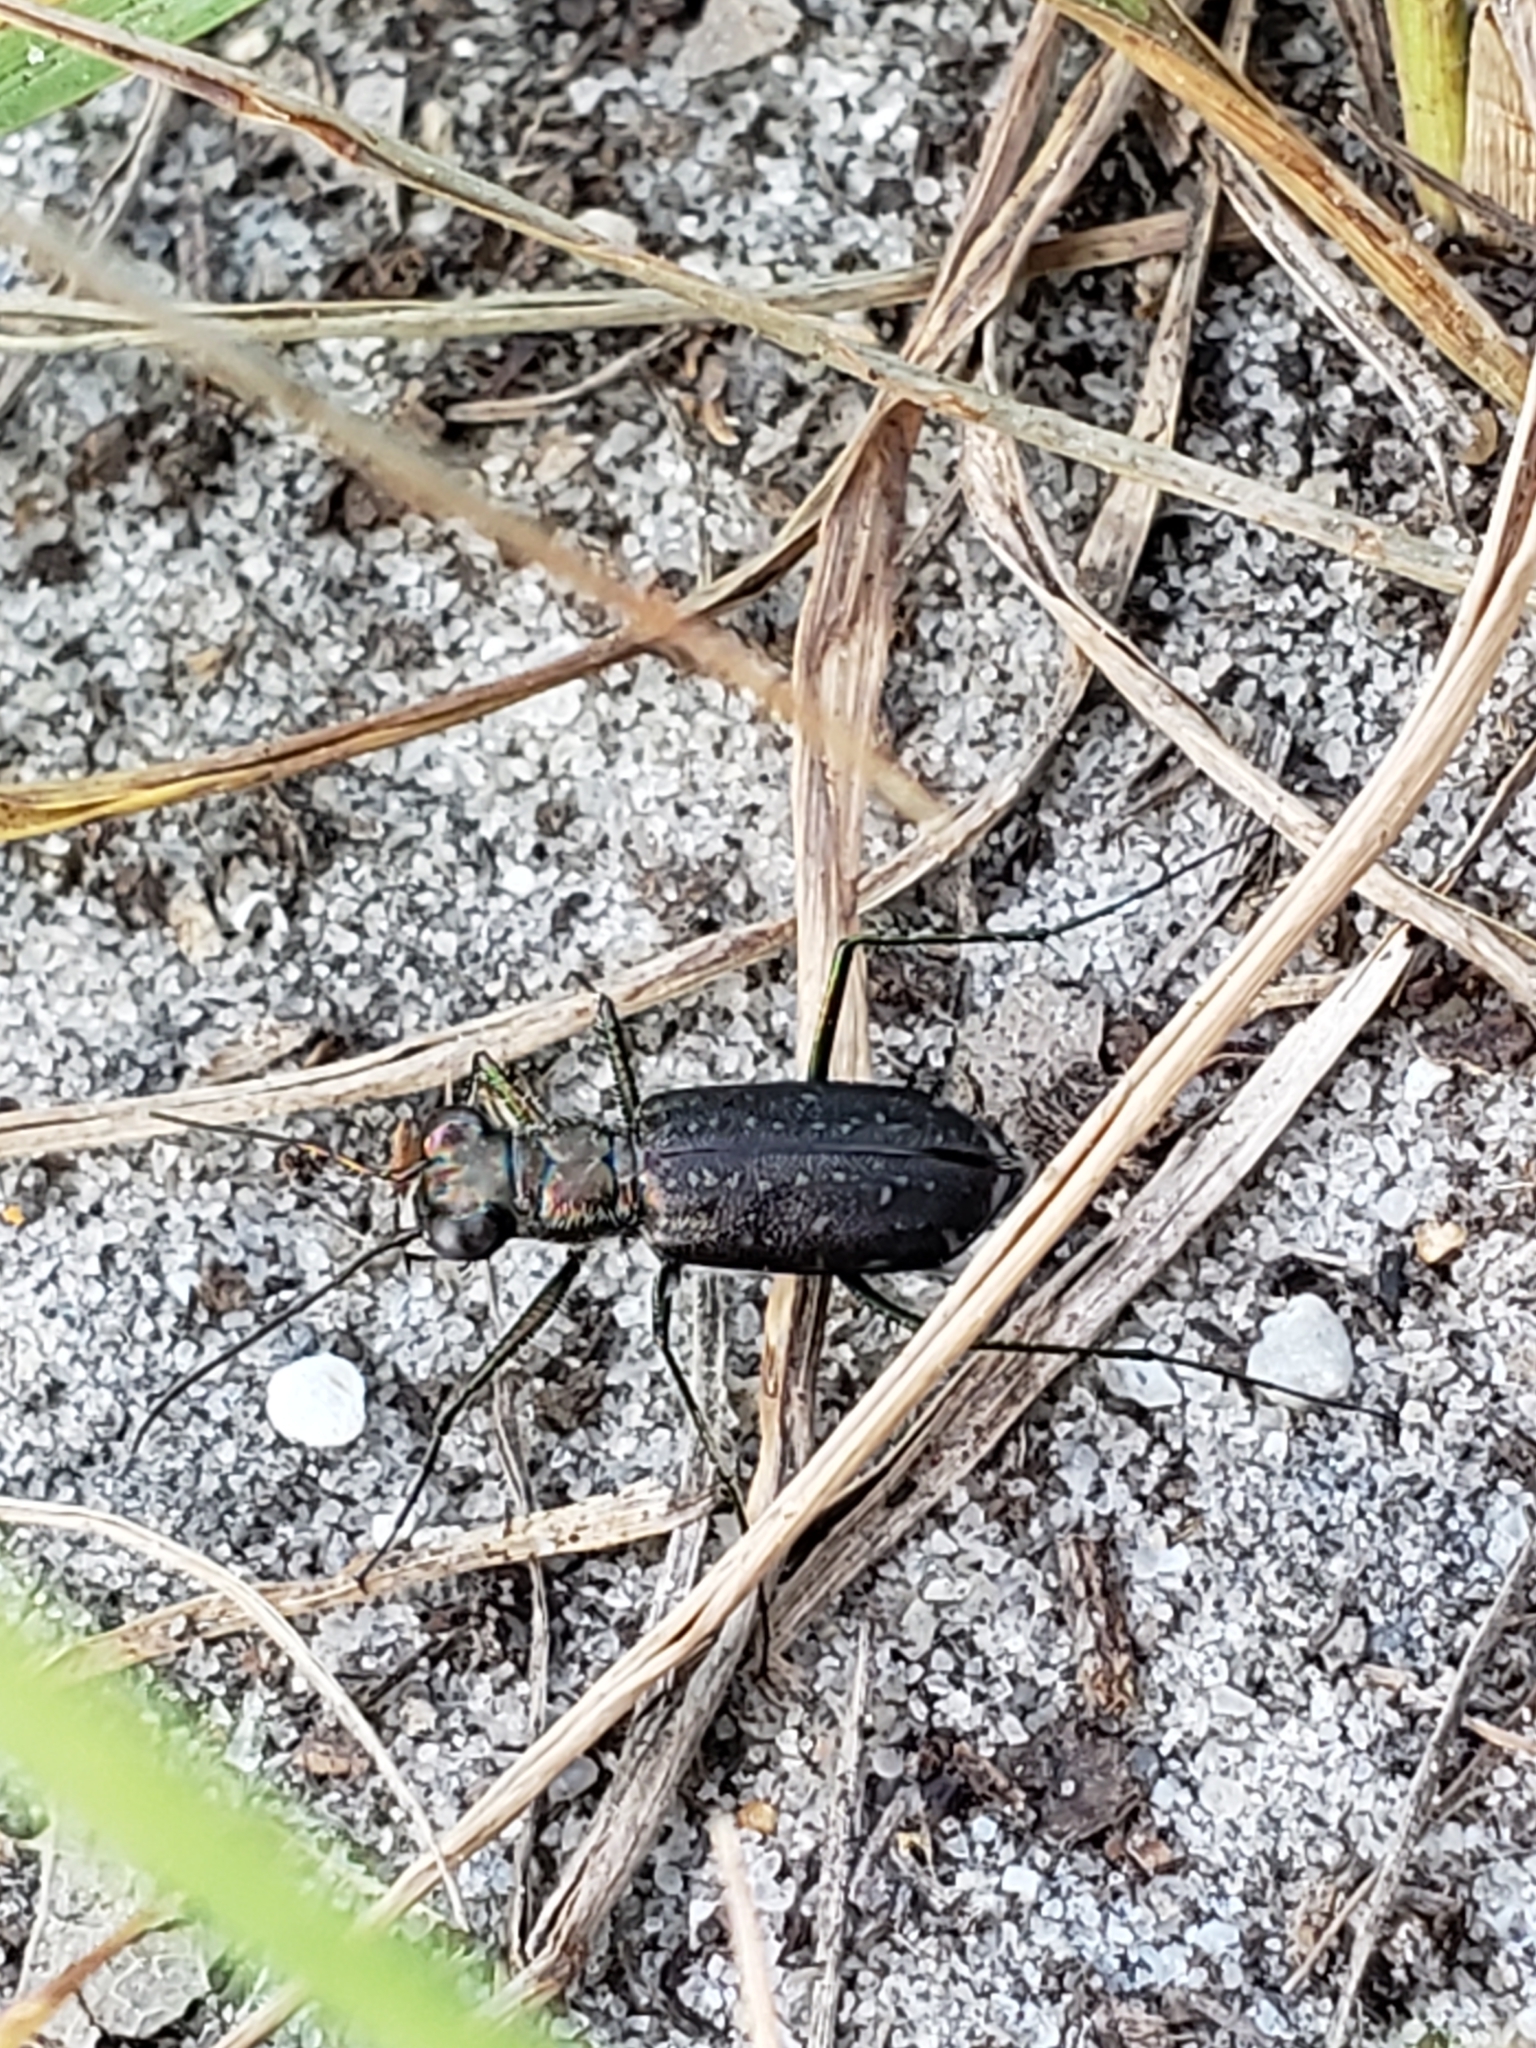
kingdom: Animalia
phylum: Arthropoda
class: Insecta
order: Coleoptera
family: Carabidae
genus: Cicindela
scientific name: Cicindela punctulata
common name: Punctured tiger beetle
